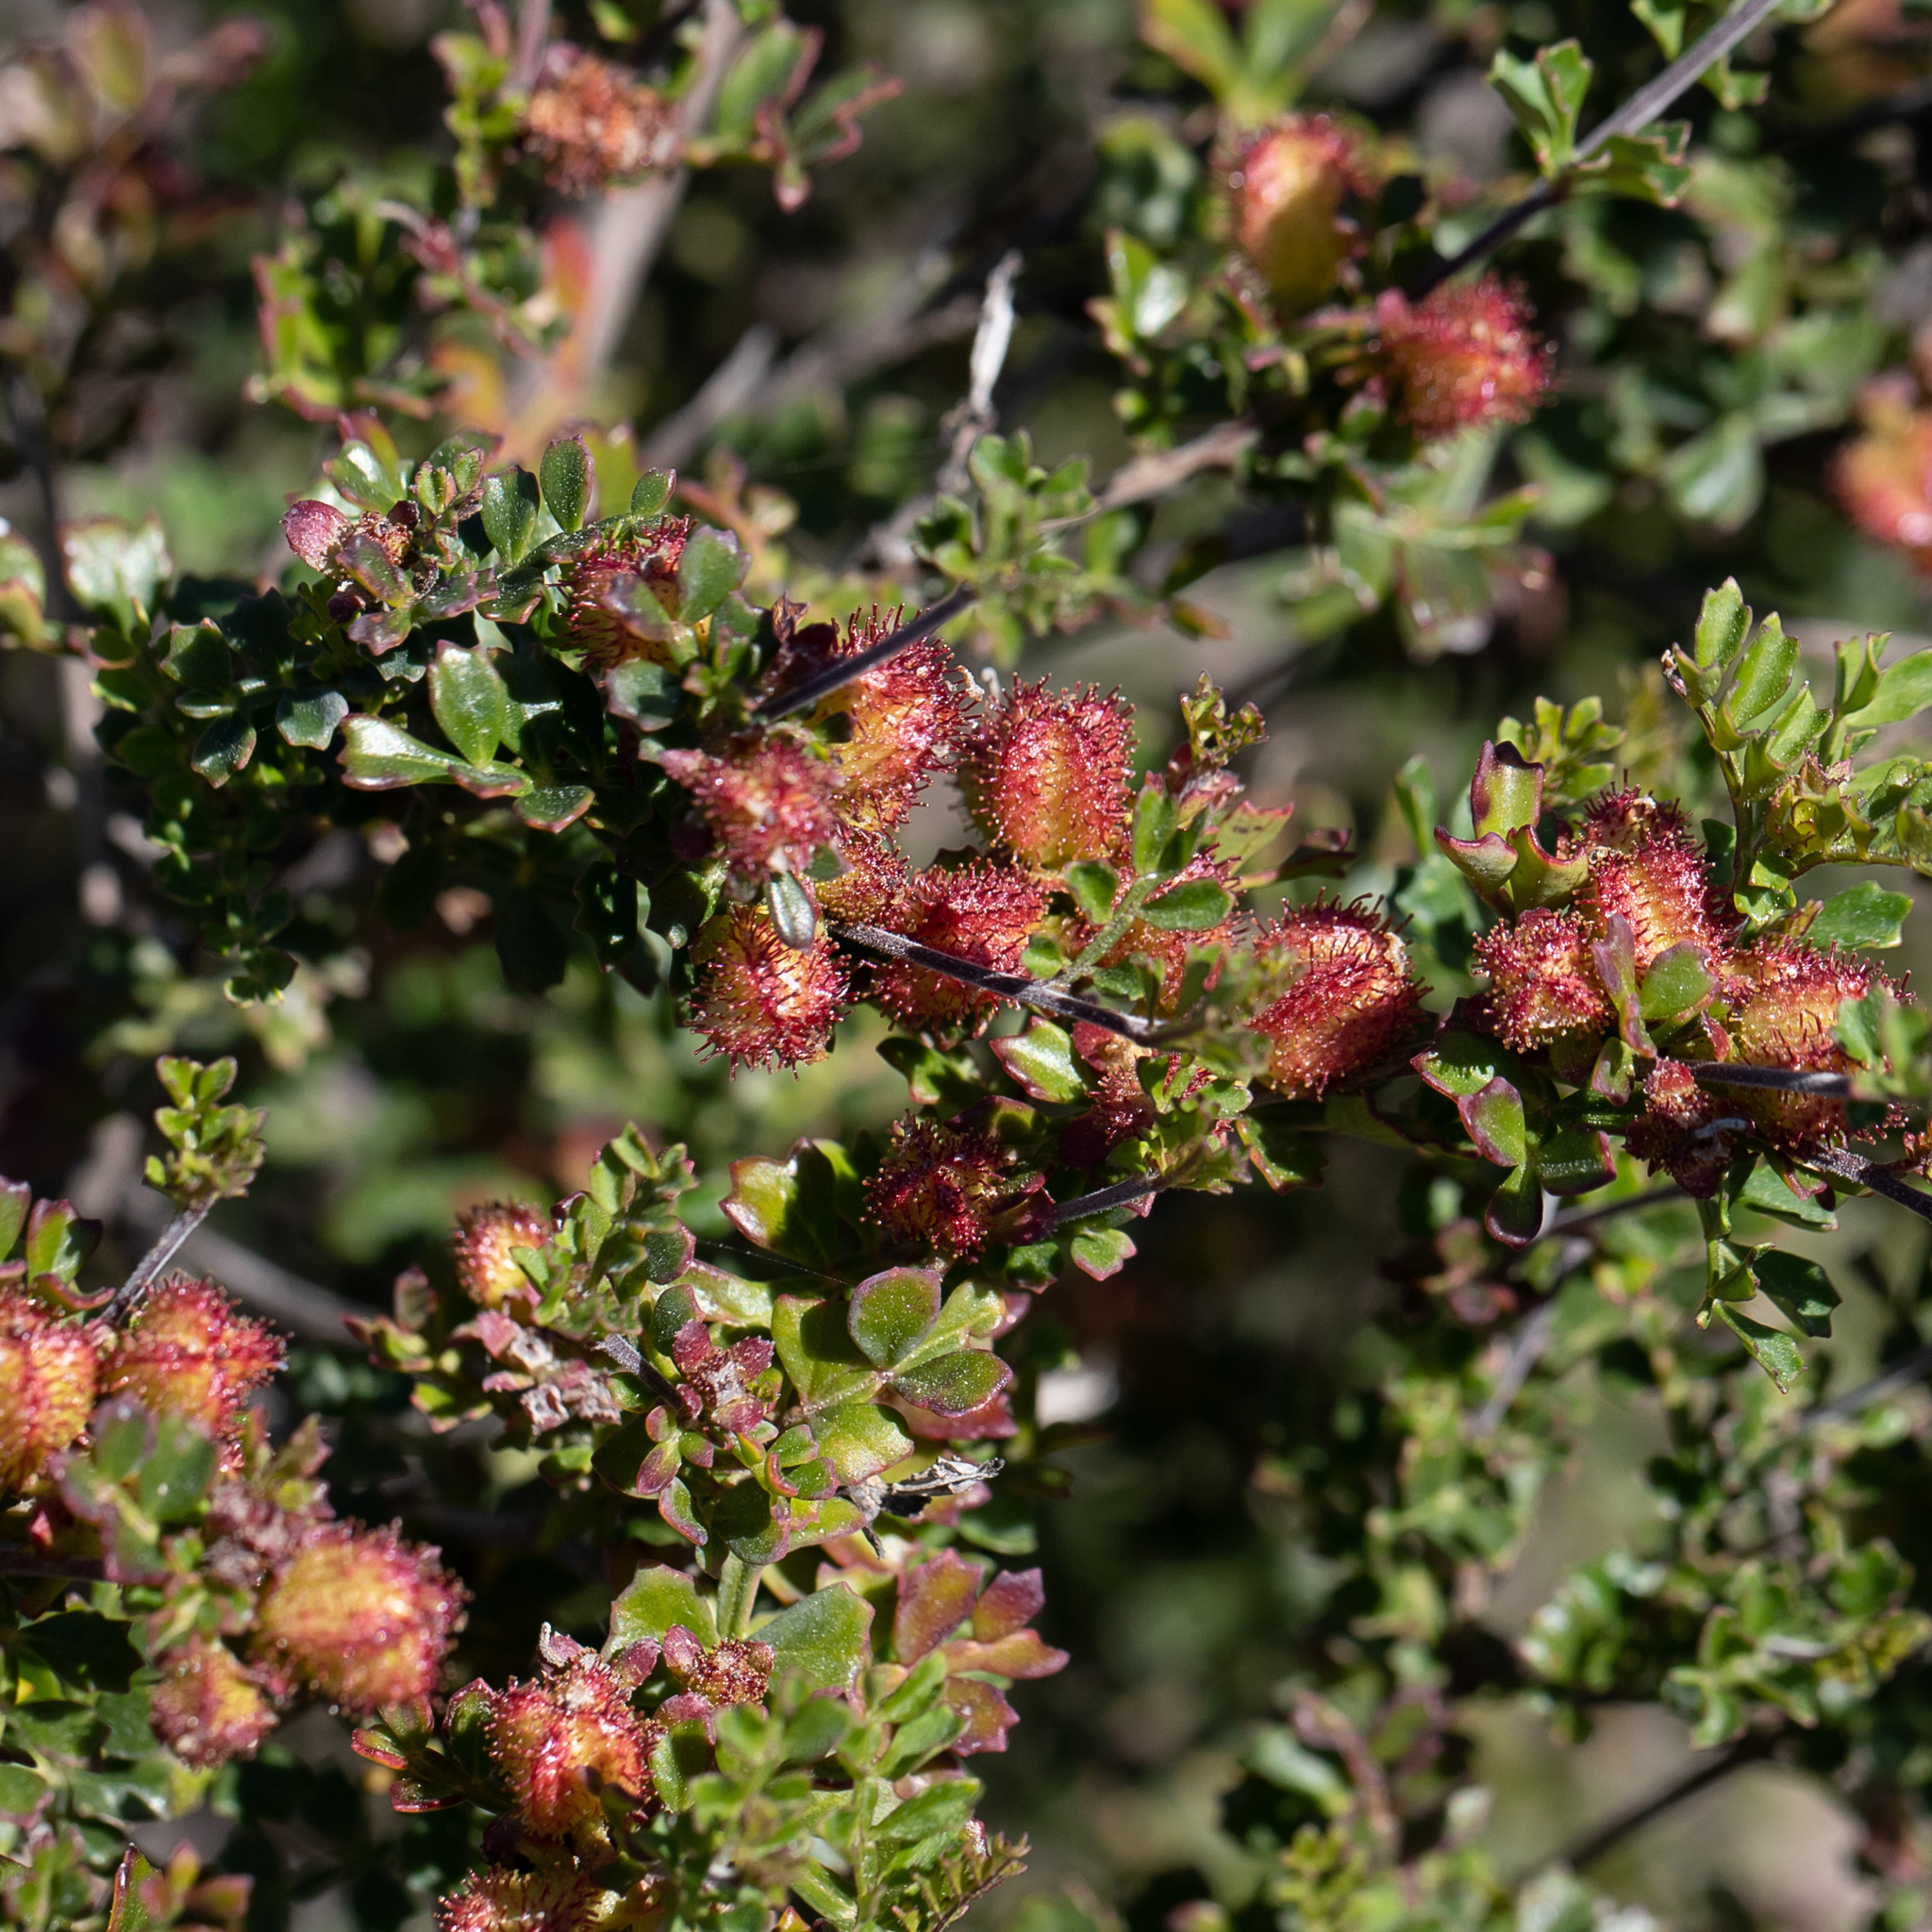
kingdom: Plantae
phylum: Tracheophyta
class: Magnoliopsida
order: Sapindales
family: Sapindaceae
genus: Dodonaea
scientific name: Dodonaea humilis
